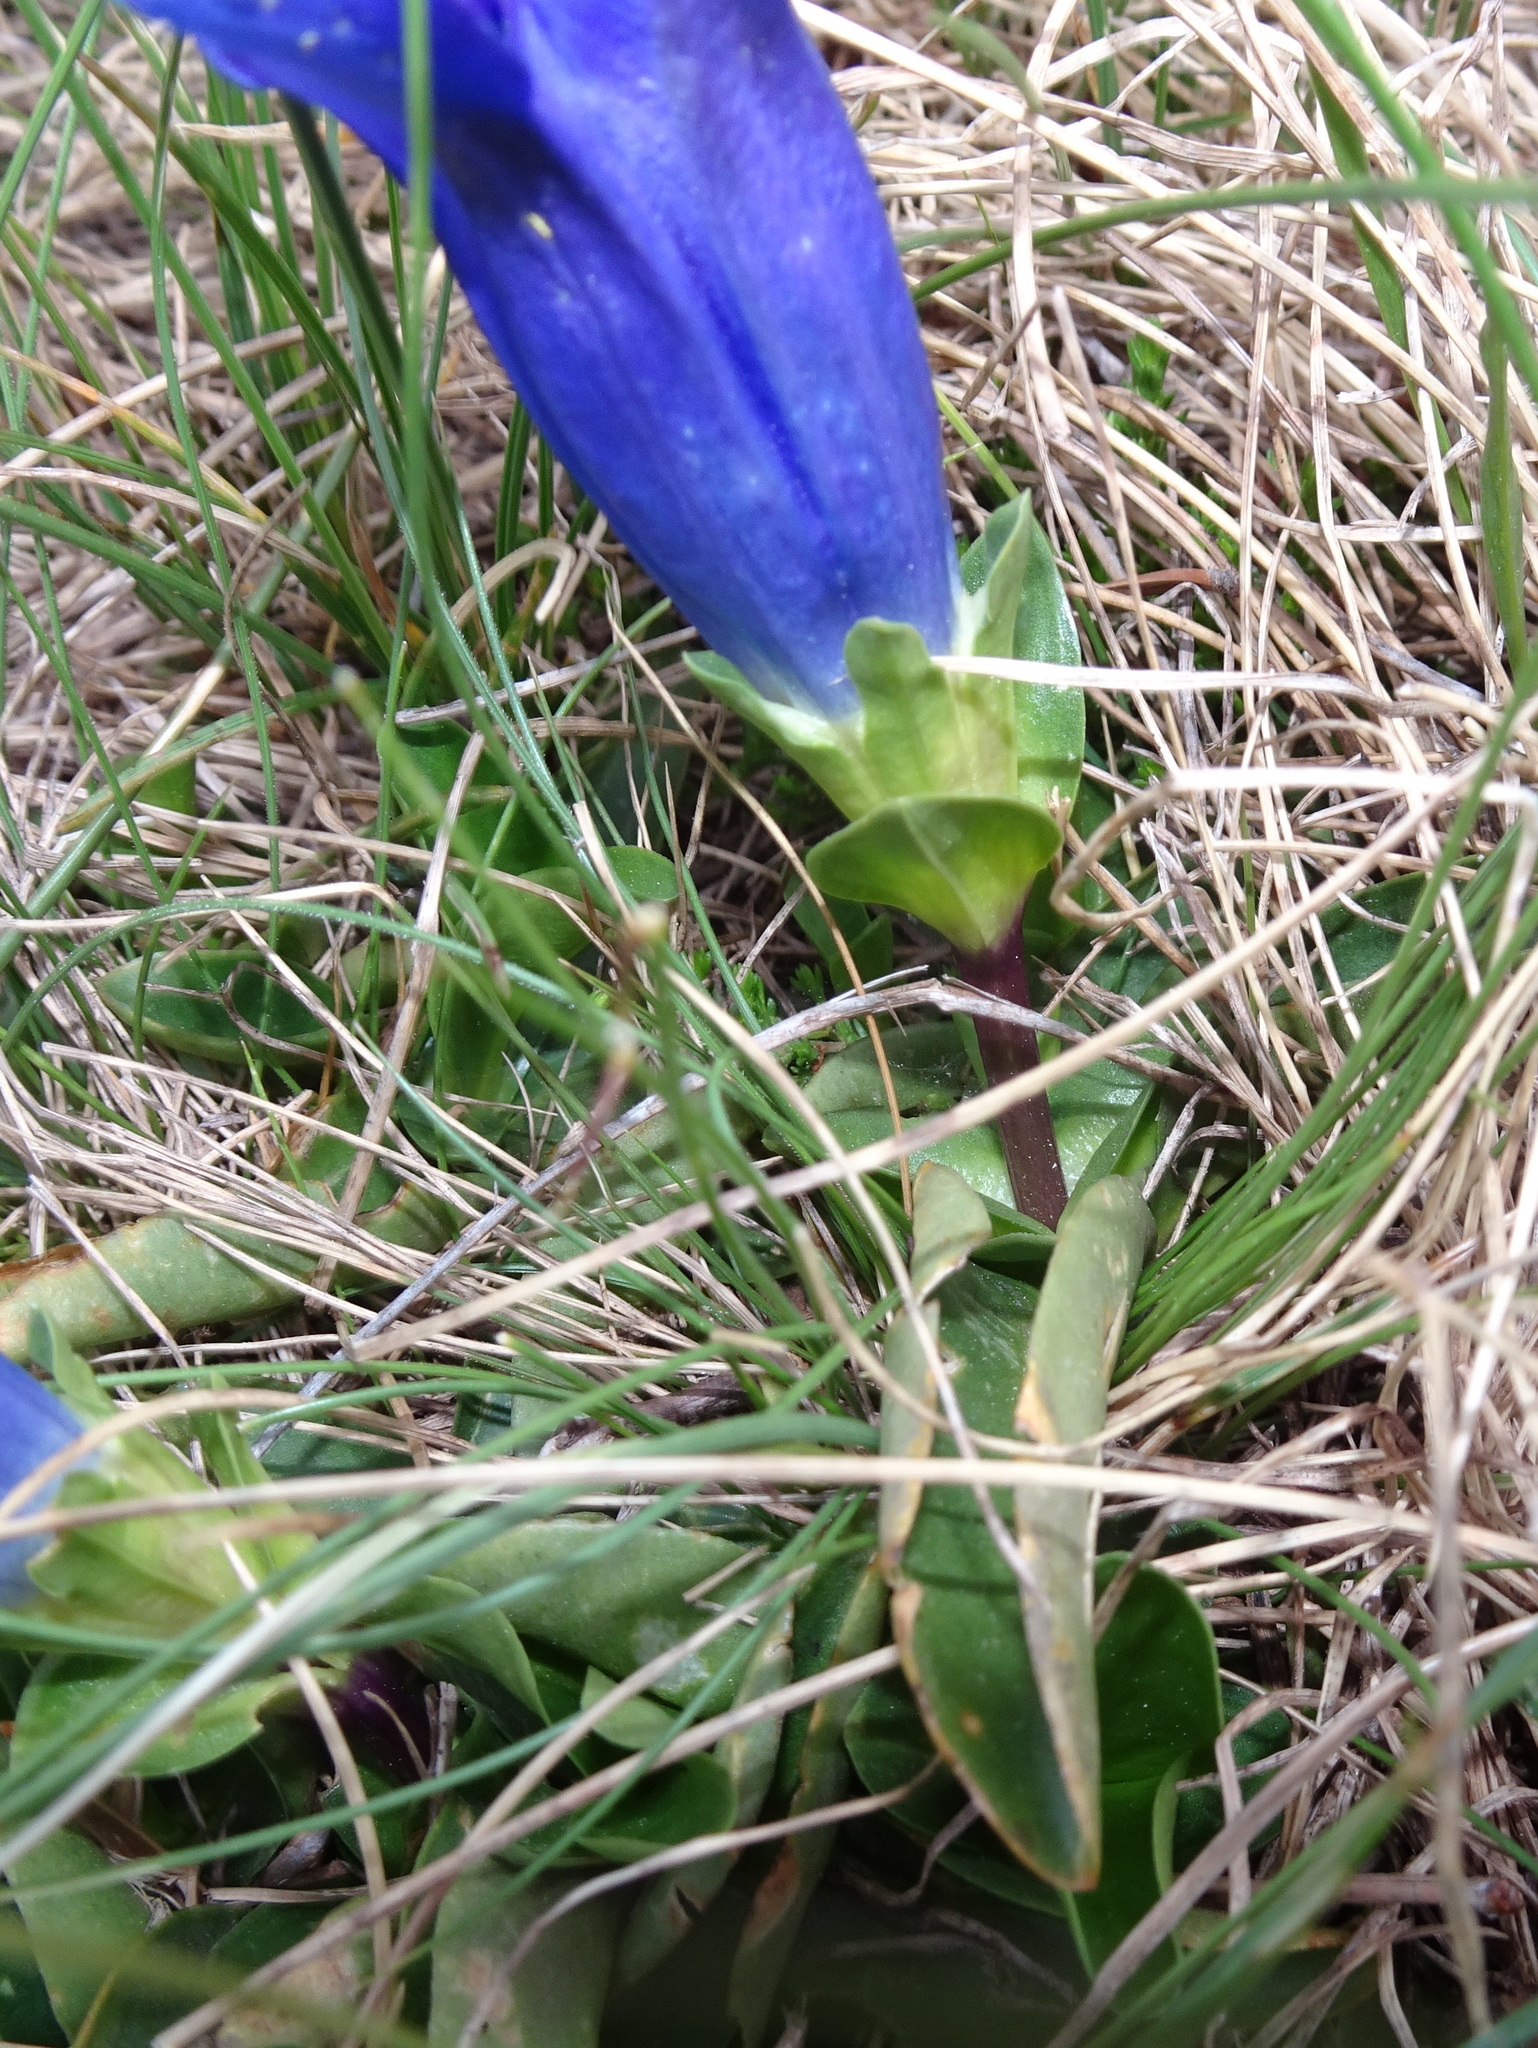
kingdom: Plantae
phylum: Tracheophyta
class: Magnoliopsida
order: Gentianales
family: Gentianaceae
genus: Gentiana
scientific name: Gentiana acaulis
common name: Trumpet gentian
